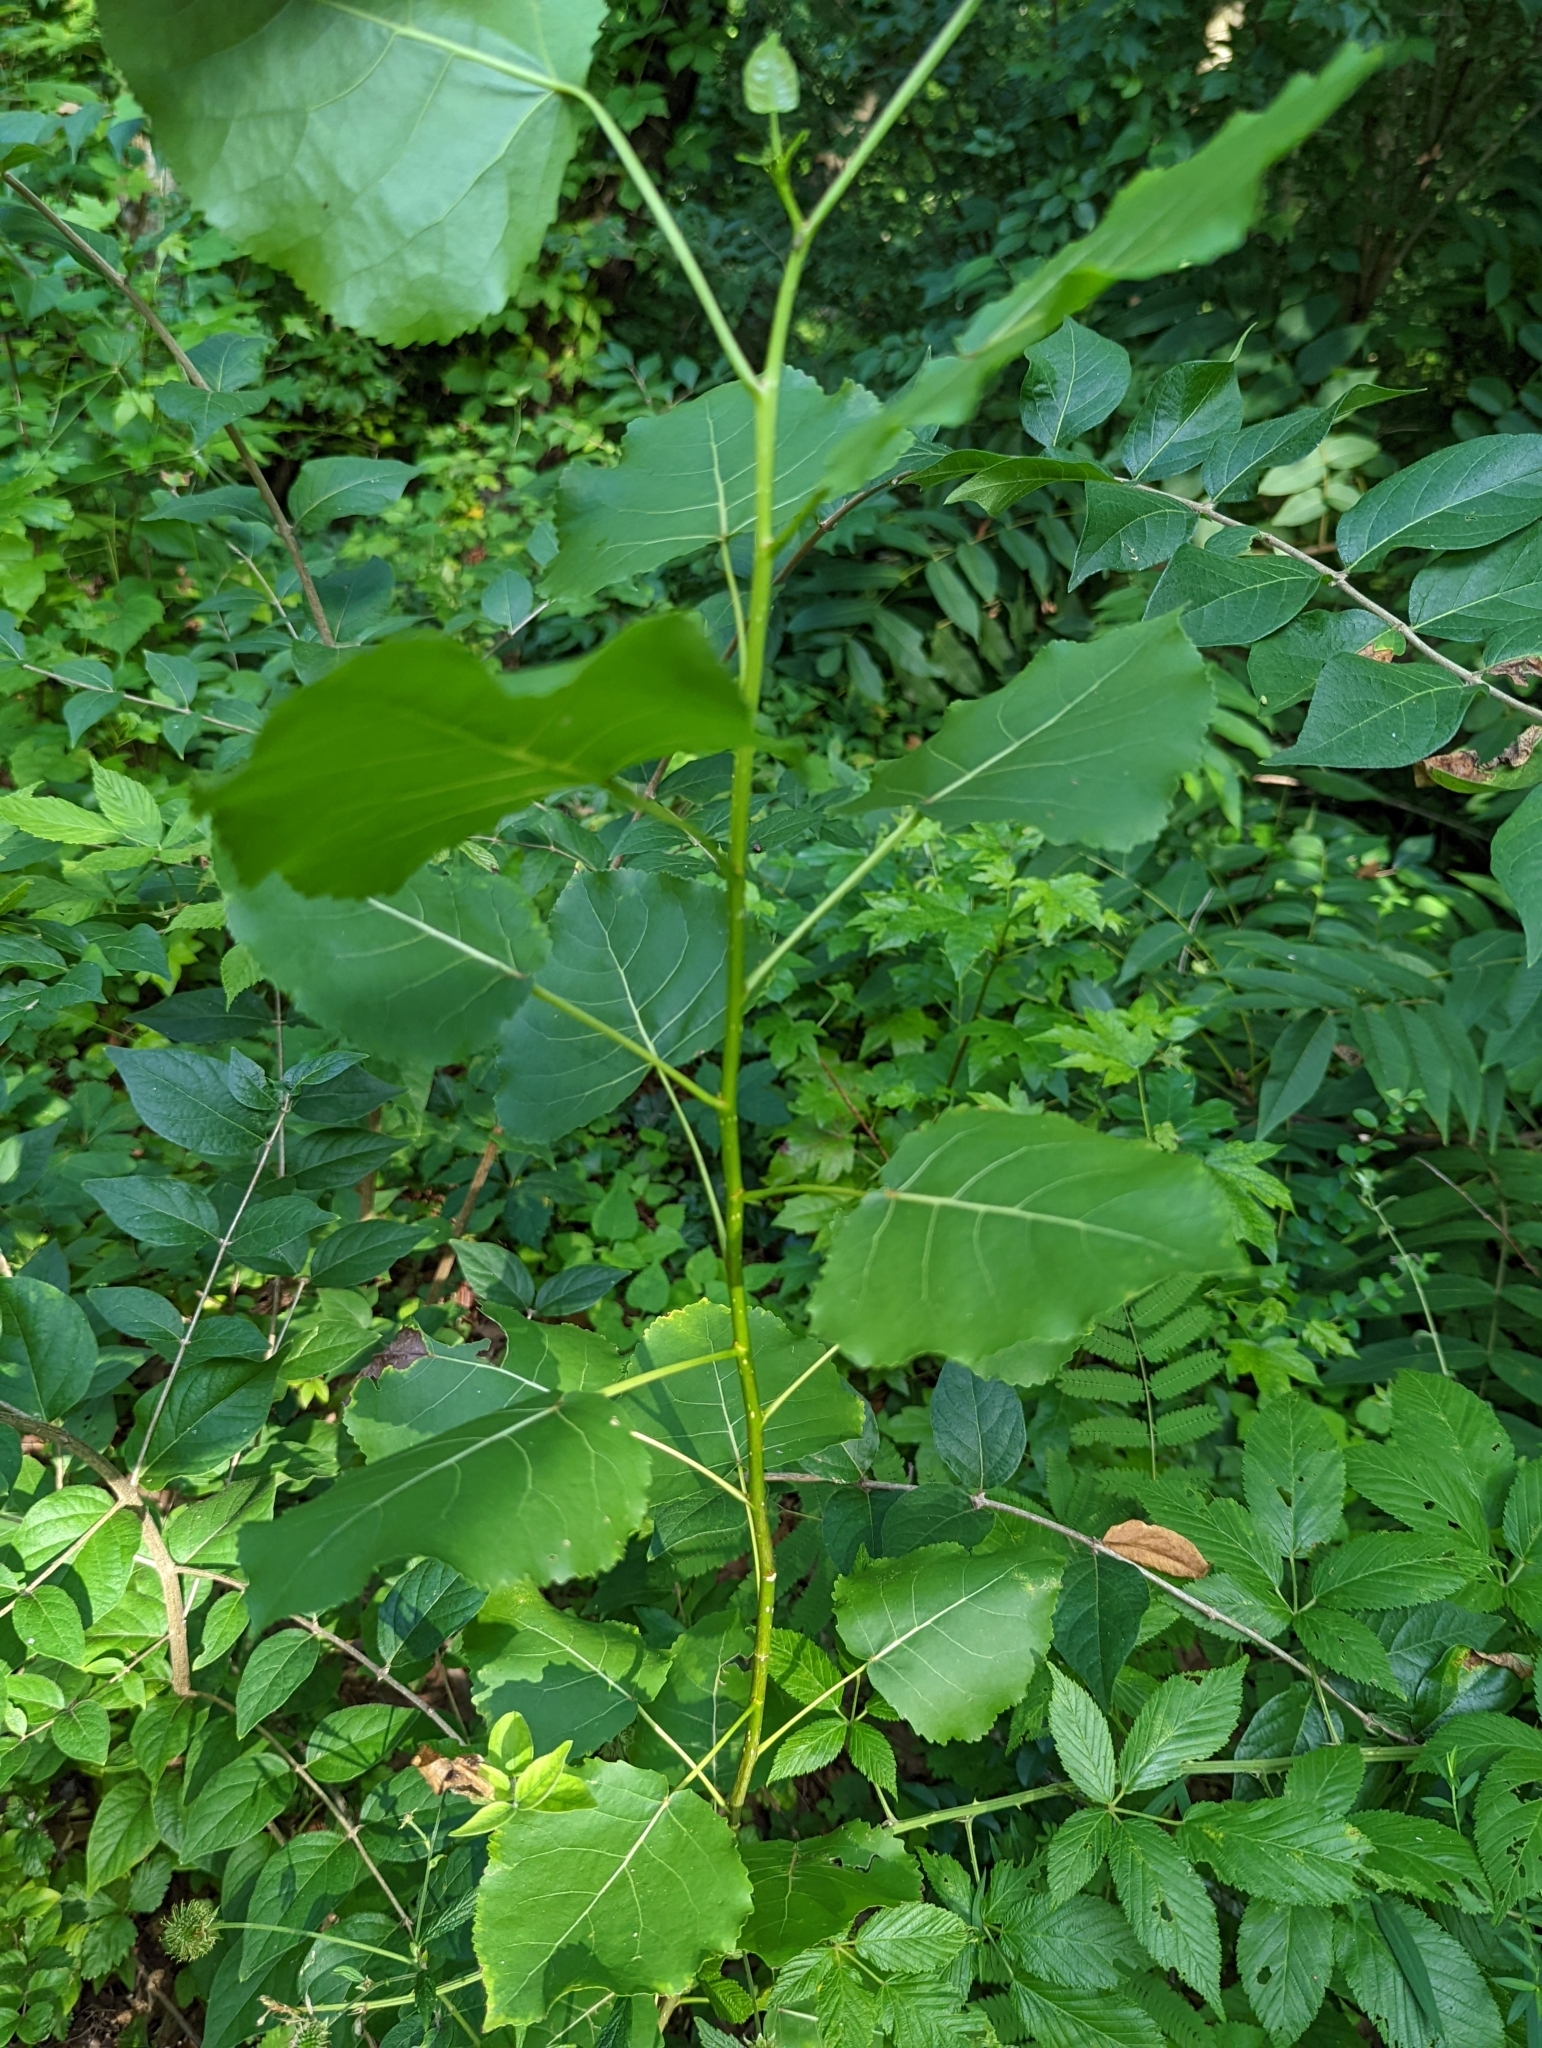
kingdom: Plantae
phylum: Tracheophyta
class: Magnoliopsida
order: Malpighiales
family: Salicaceae
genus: Populus
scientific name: Populus deltoides
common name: Eastern cottonwood
